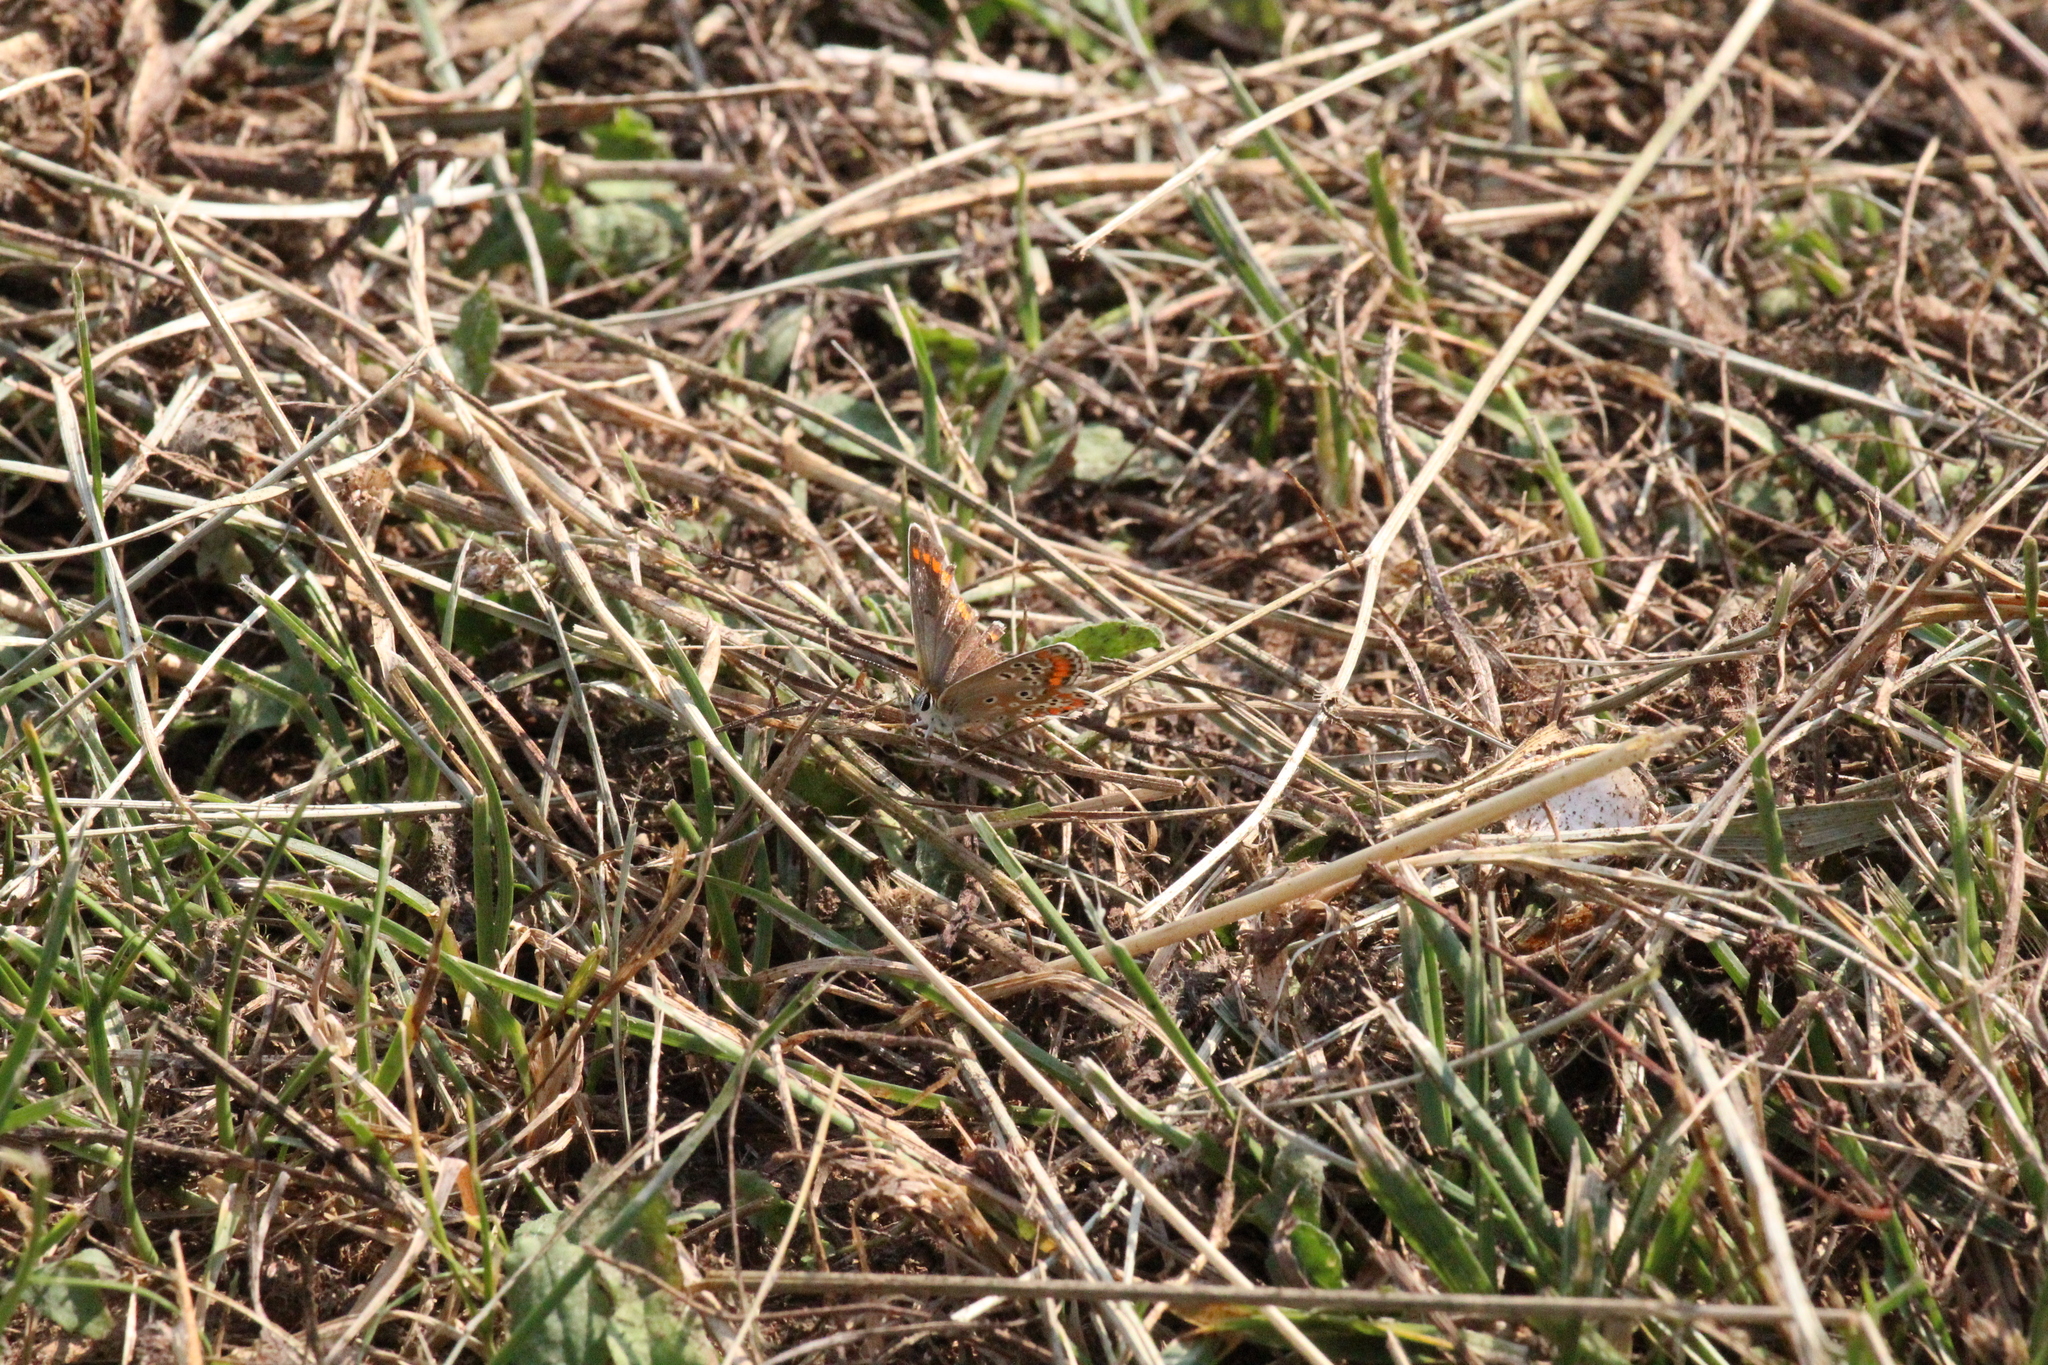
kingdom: Animalia
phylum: Arthropoda
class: Insecta
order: Lepidoptera
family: Lycaenidae
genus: Aricia
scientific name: Aricia agestis
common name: Brown argus
